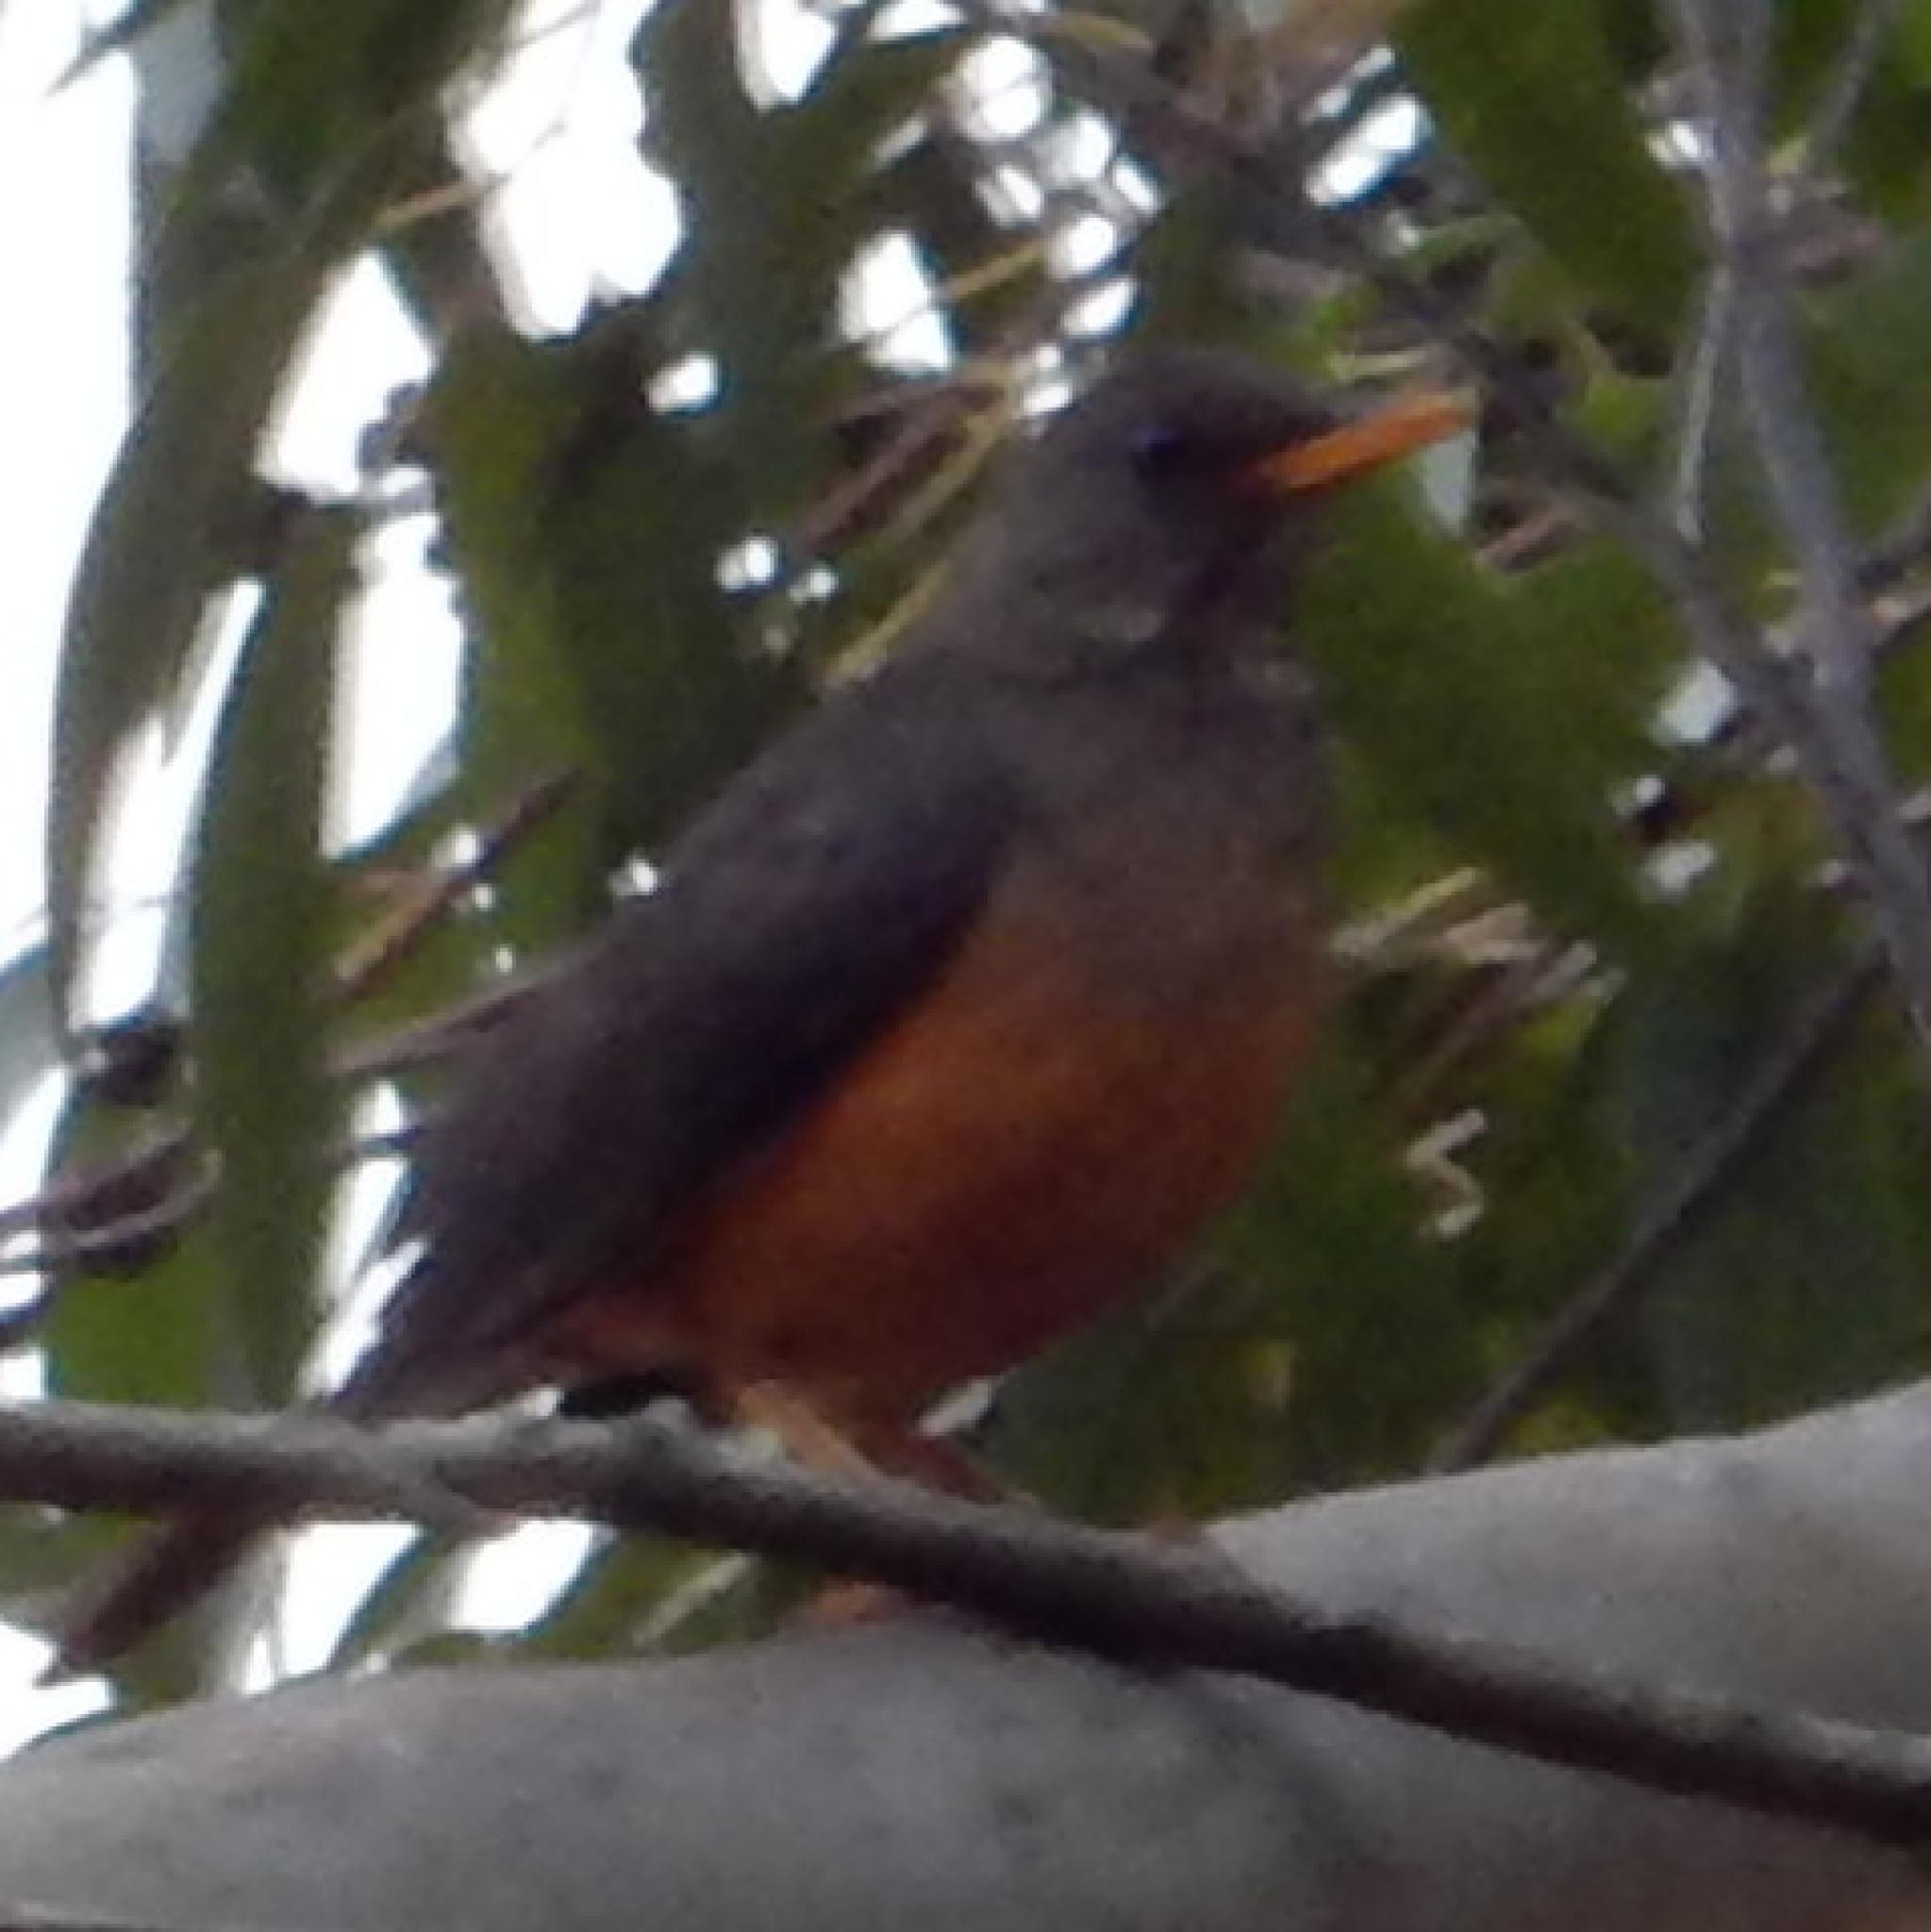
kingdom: Animalia
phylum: Chordata
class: Aves
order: Passeriformes
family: Turdidae
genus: Turdus
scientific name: Turdus olivaceus
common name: Olive thrush
